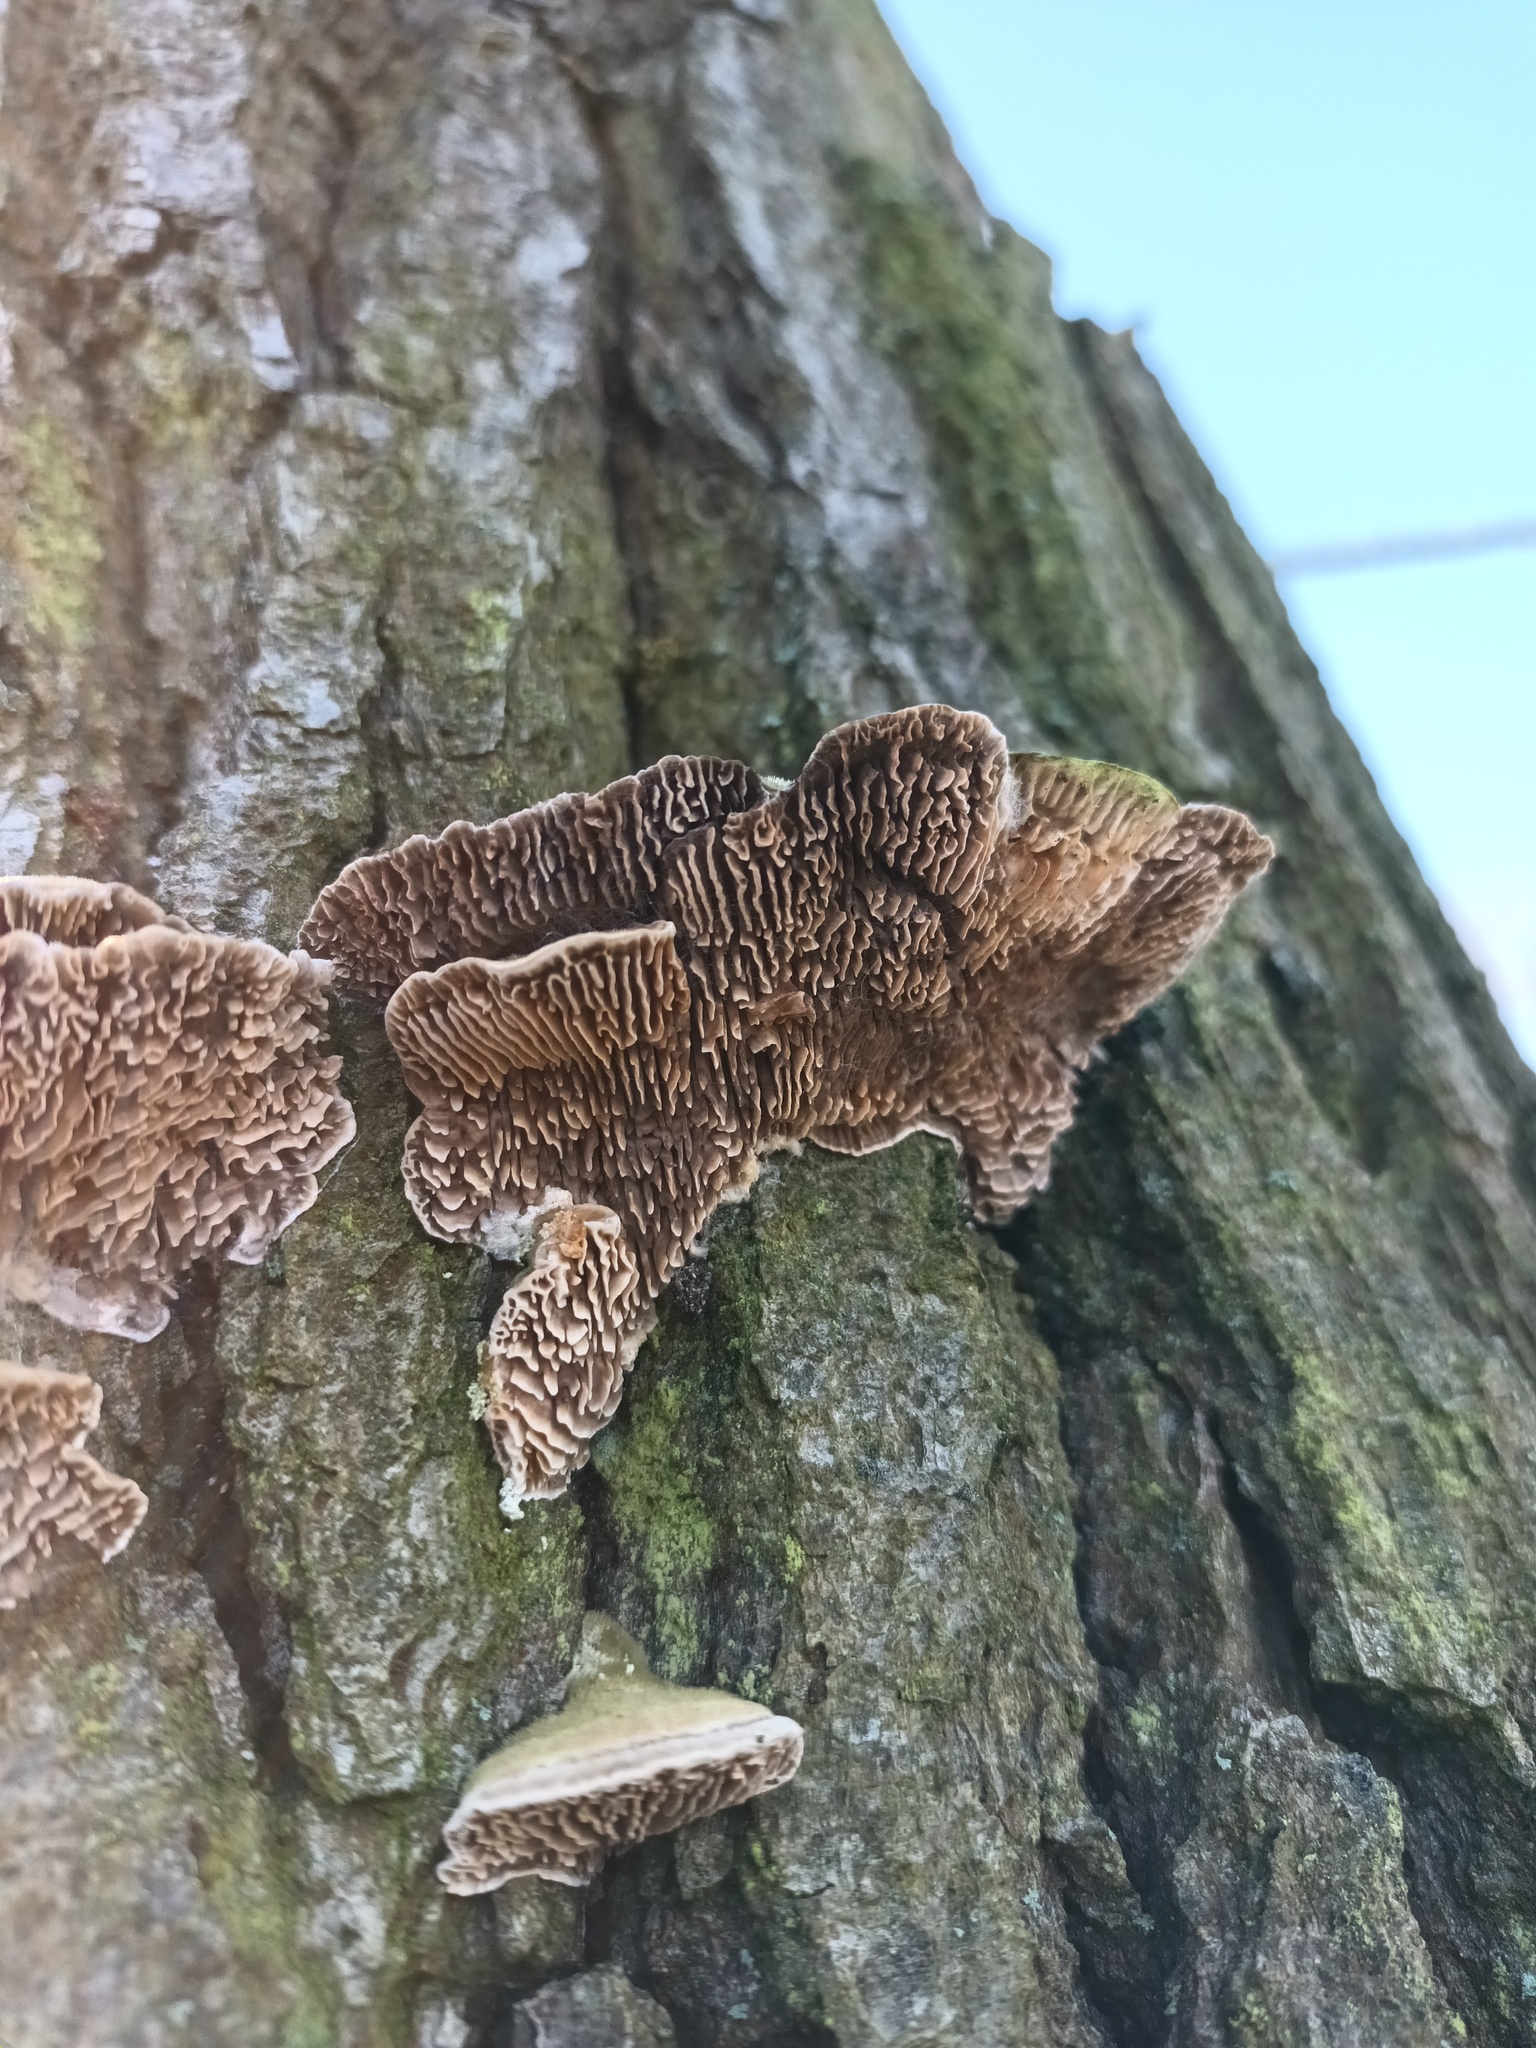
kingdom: Fungi
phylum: Basidiomycota
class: Agaricomycetes
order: Polyporales
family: Fomitopsidaceae
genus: Fomitopsis
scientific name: Fomitopsis
